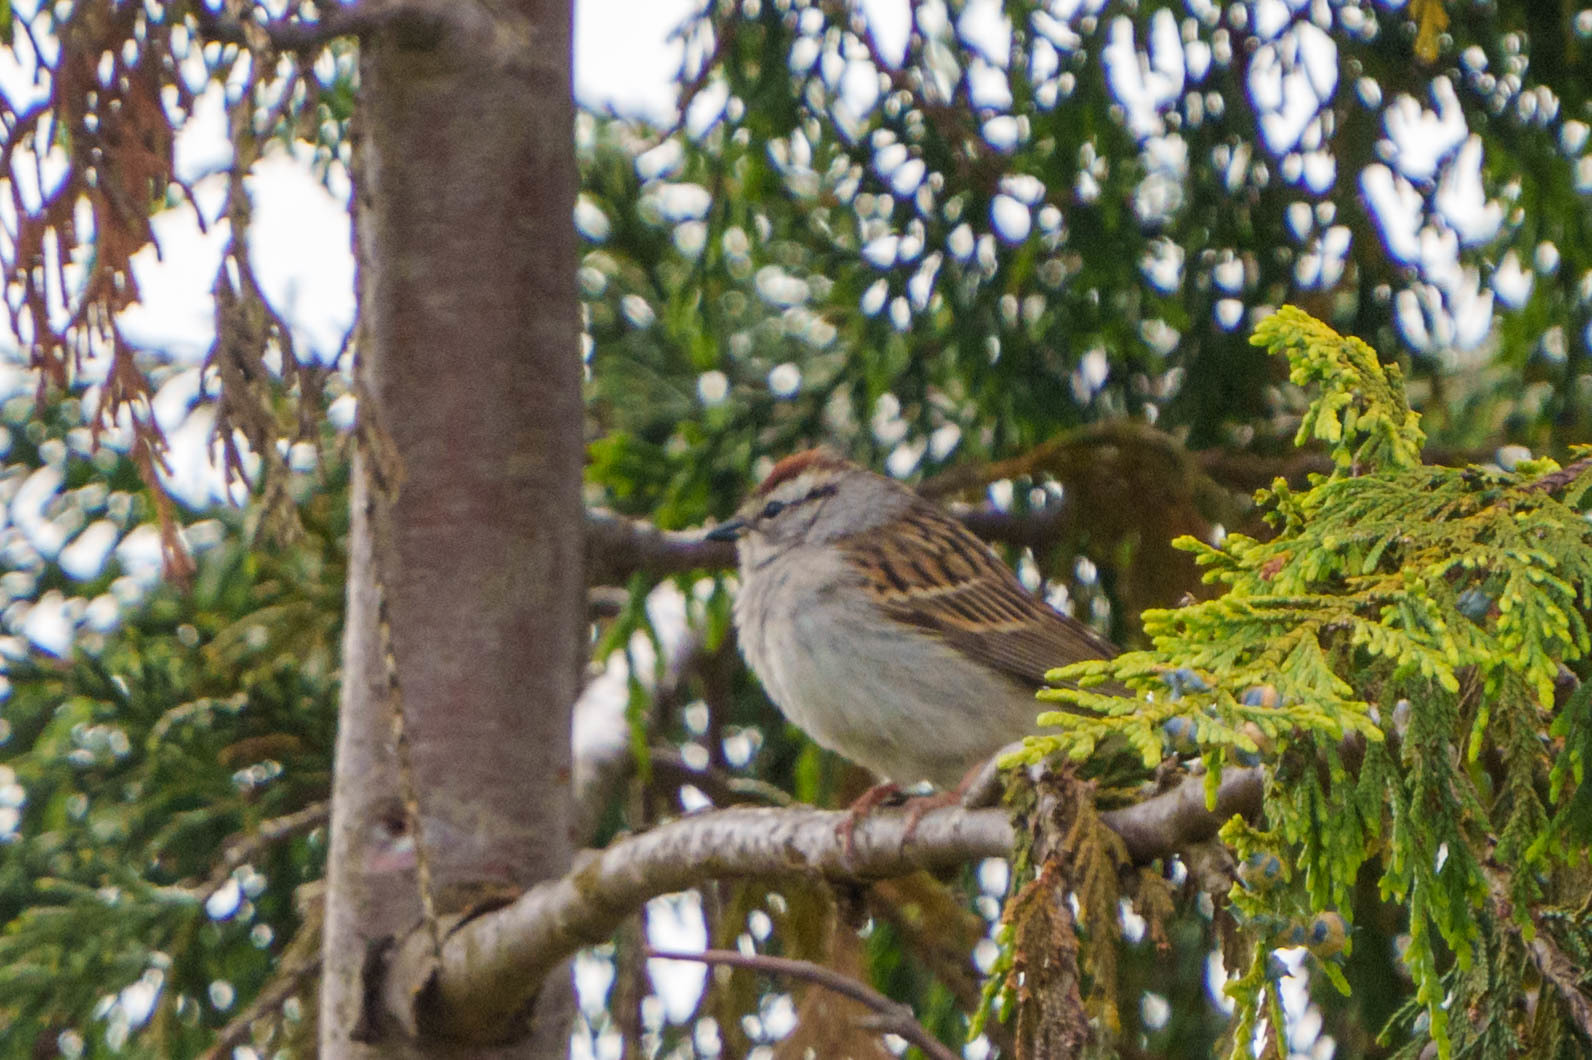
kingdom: Animalia
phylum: Chordata
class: Aves
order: Passeriformes
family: Passerellidae
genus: Spizella
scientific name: Spizella passerina
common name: Chipping sparrow
